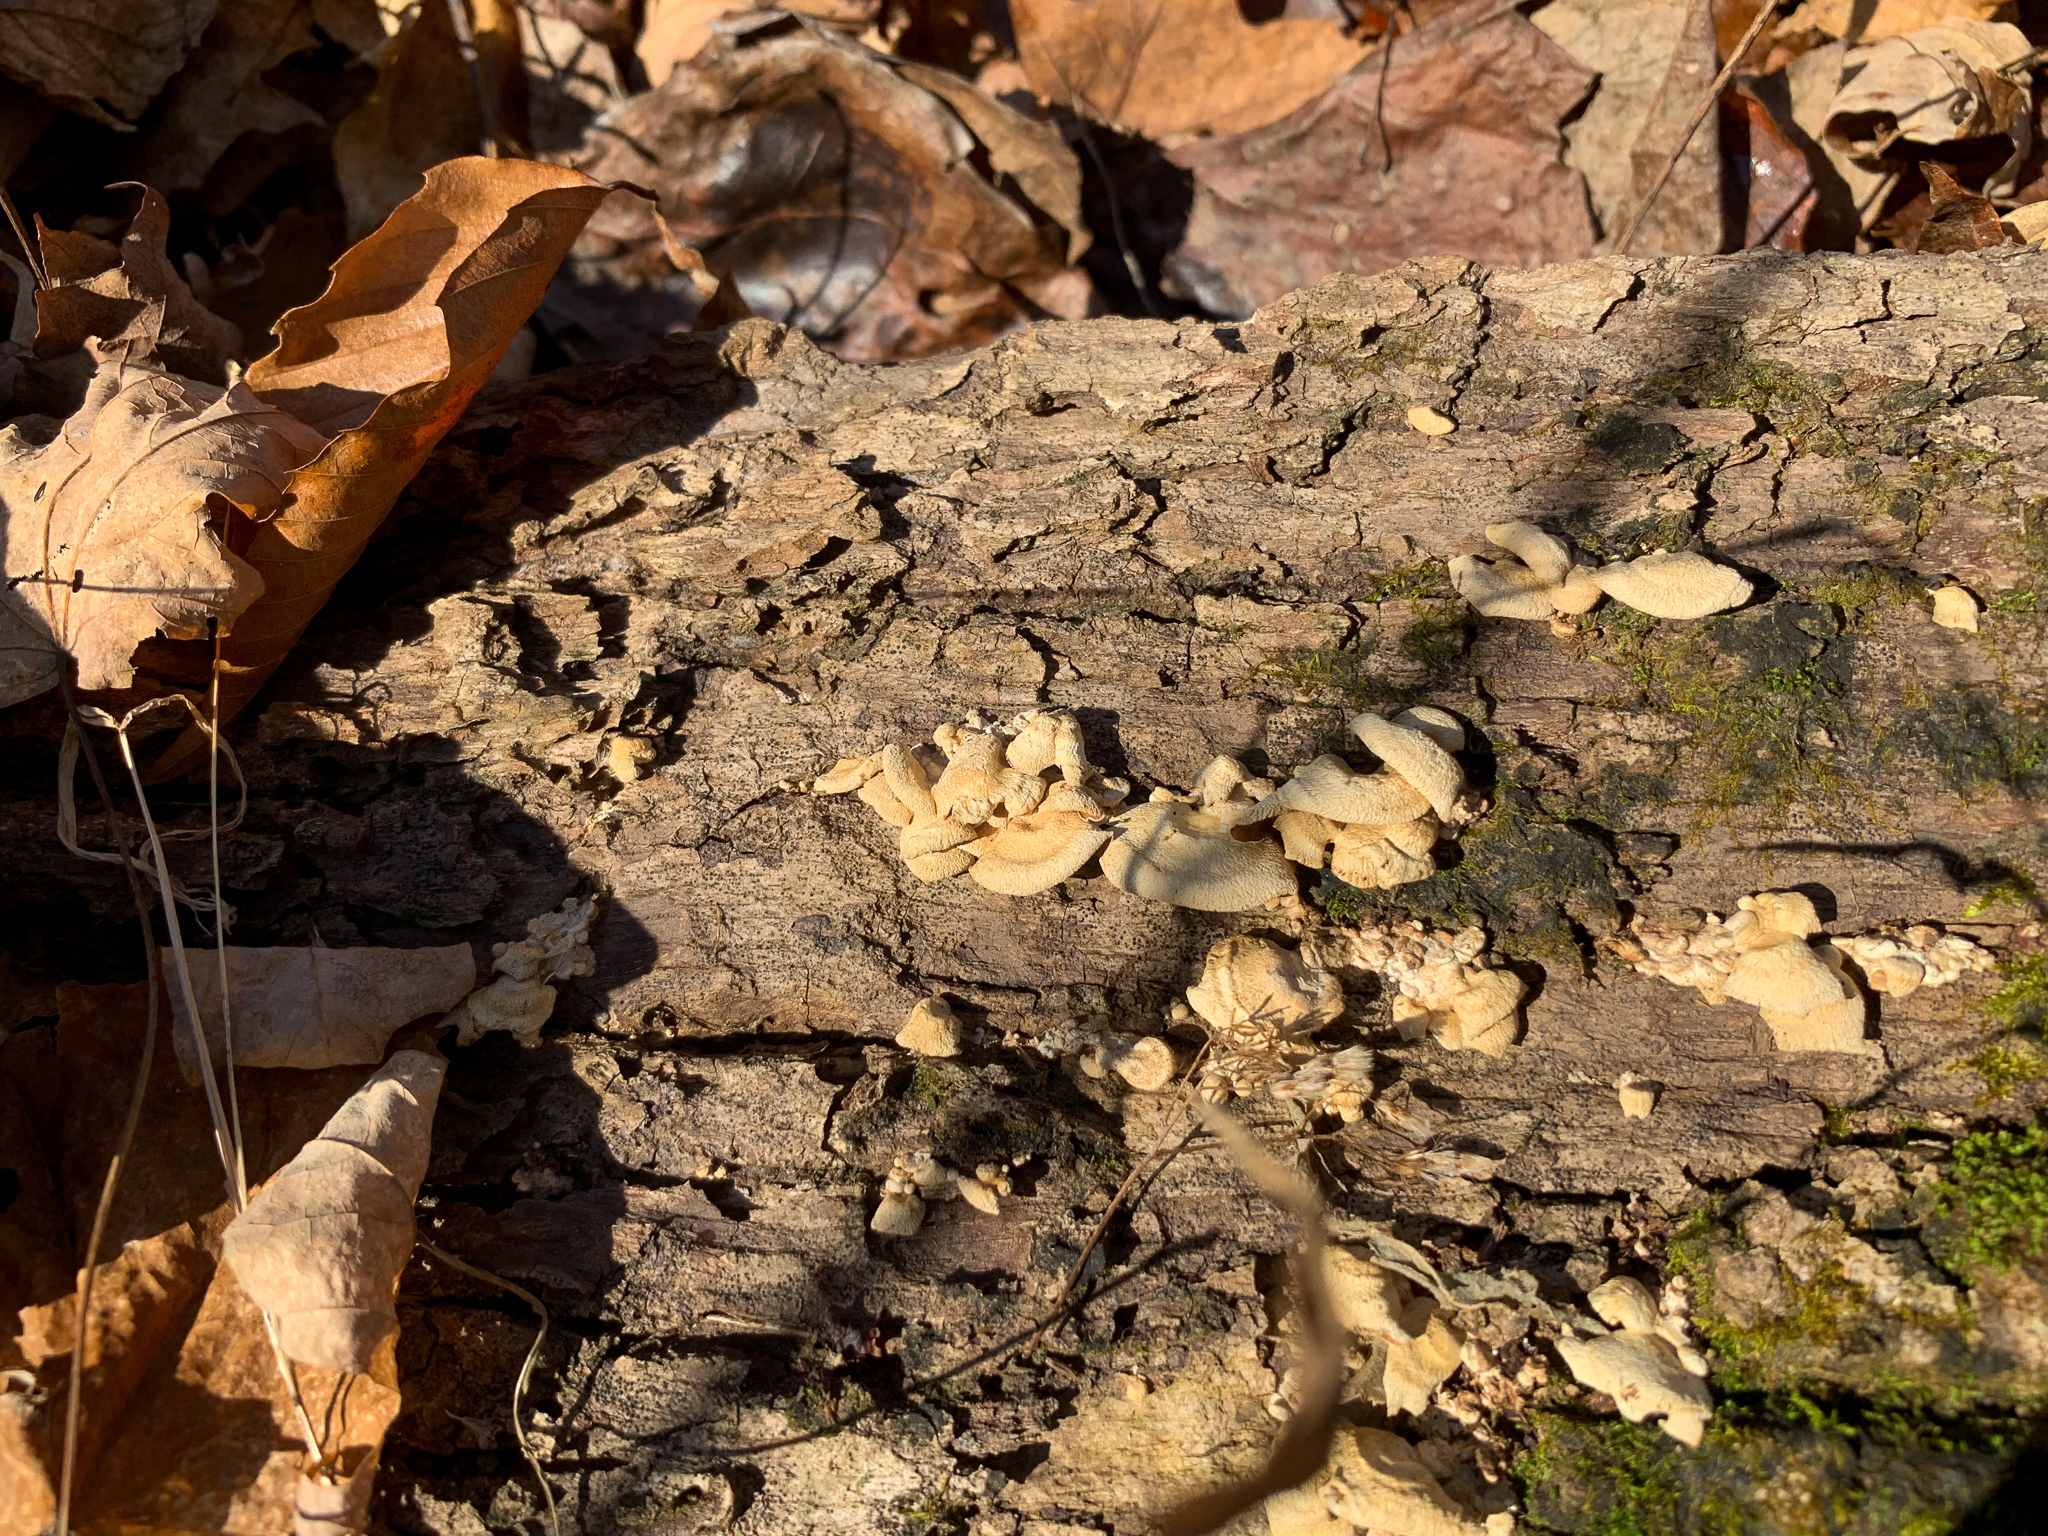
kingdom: Fungi
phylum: Basidiomycota
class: Agaricomycetes
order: Agaricales
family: Mycenaceae
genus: Panellus
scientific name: Panellus stipticus
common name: Bitter oysterling
